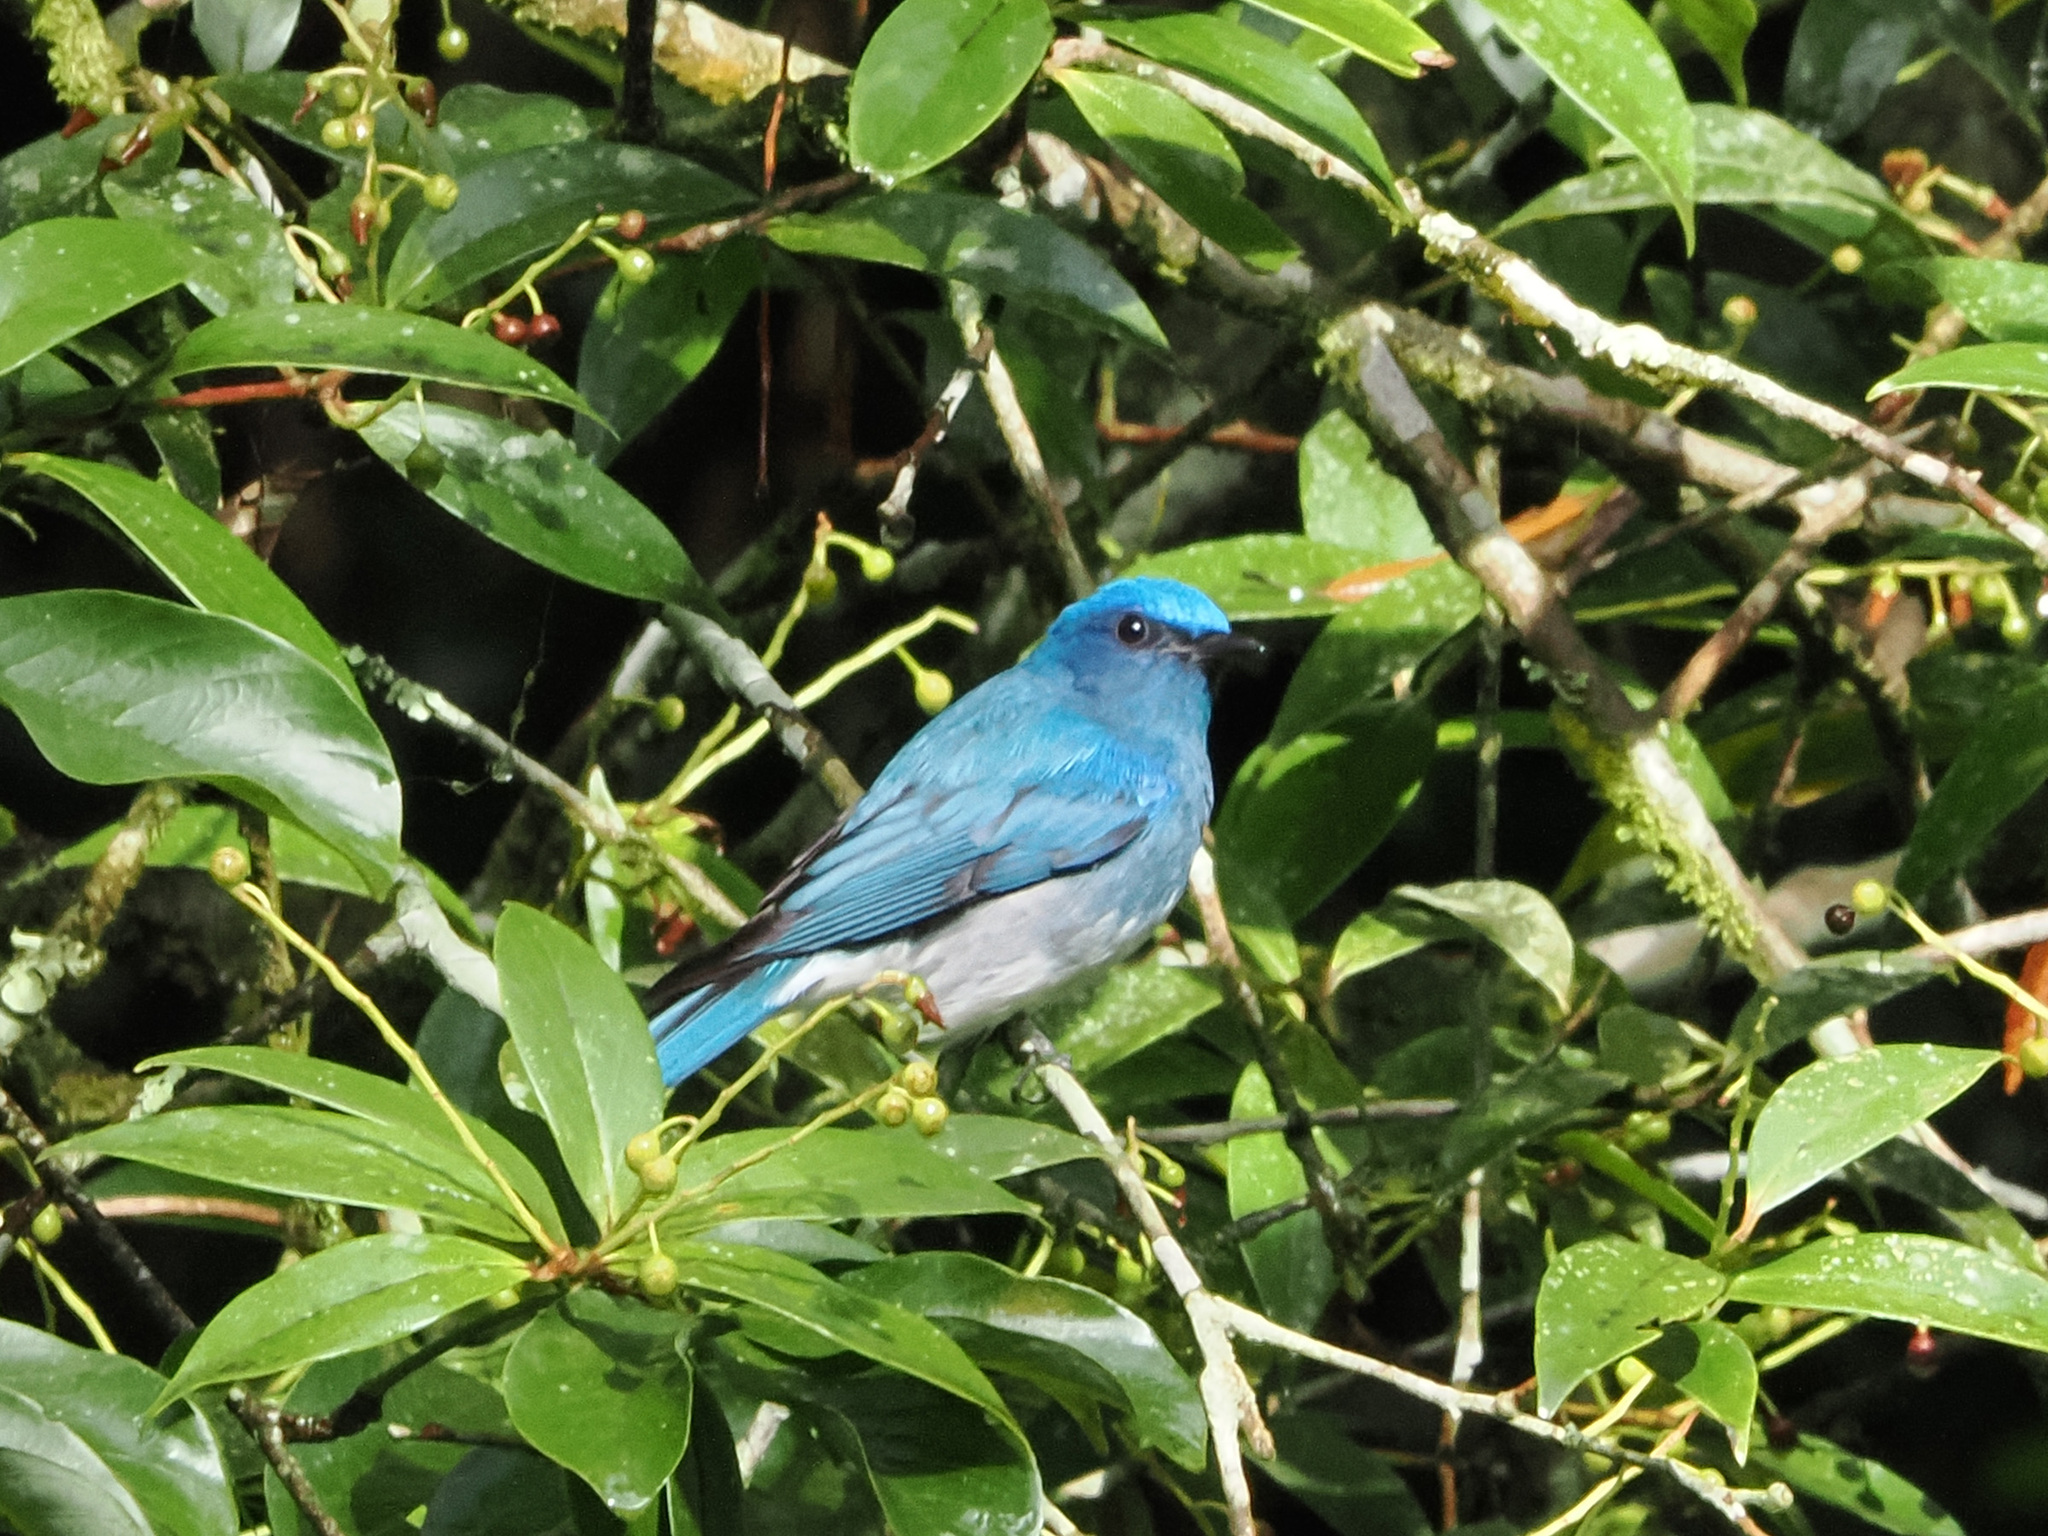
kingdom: Animalia
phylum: Chordata
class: Aves
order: Passeriformes
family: Muscicapidae
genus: Cyornis
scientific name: Cyornis unicolor
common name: Pale blue flycatcher
